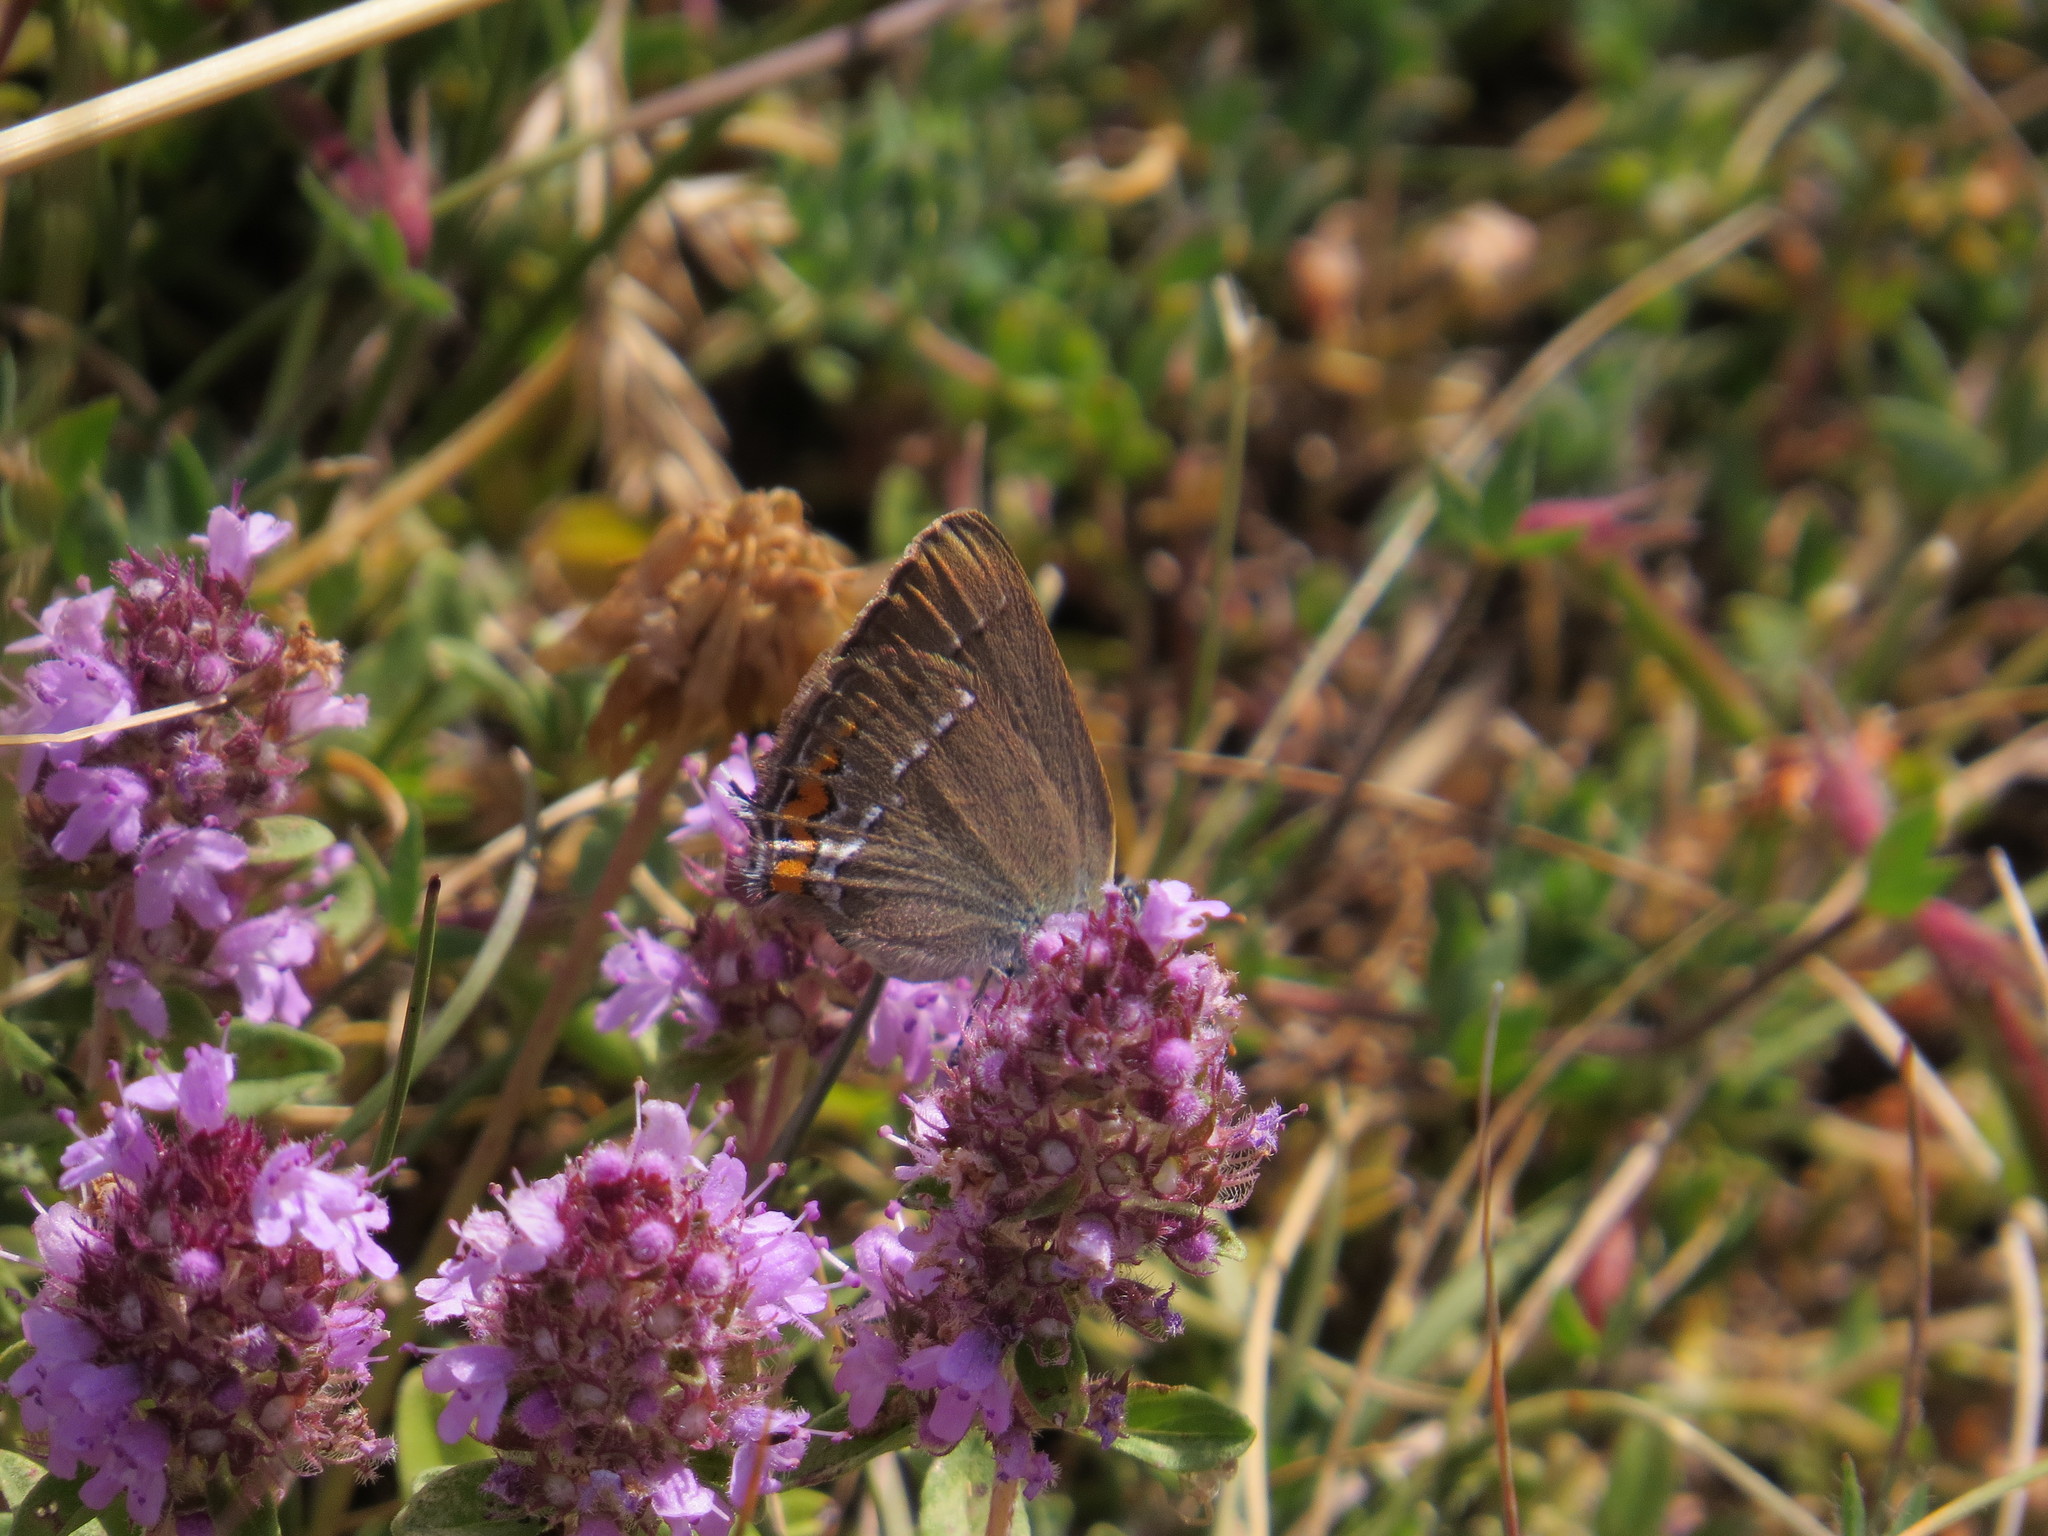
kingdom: Animalia
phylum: Arthropoda
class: Insecta
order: Lepidoptera
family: Lycaenidae
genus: Strymon
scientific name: Strymon acaciae
